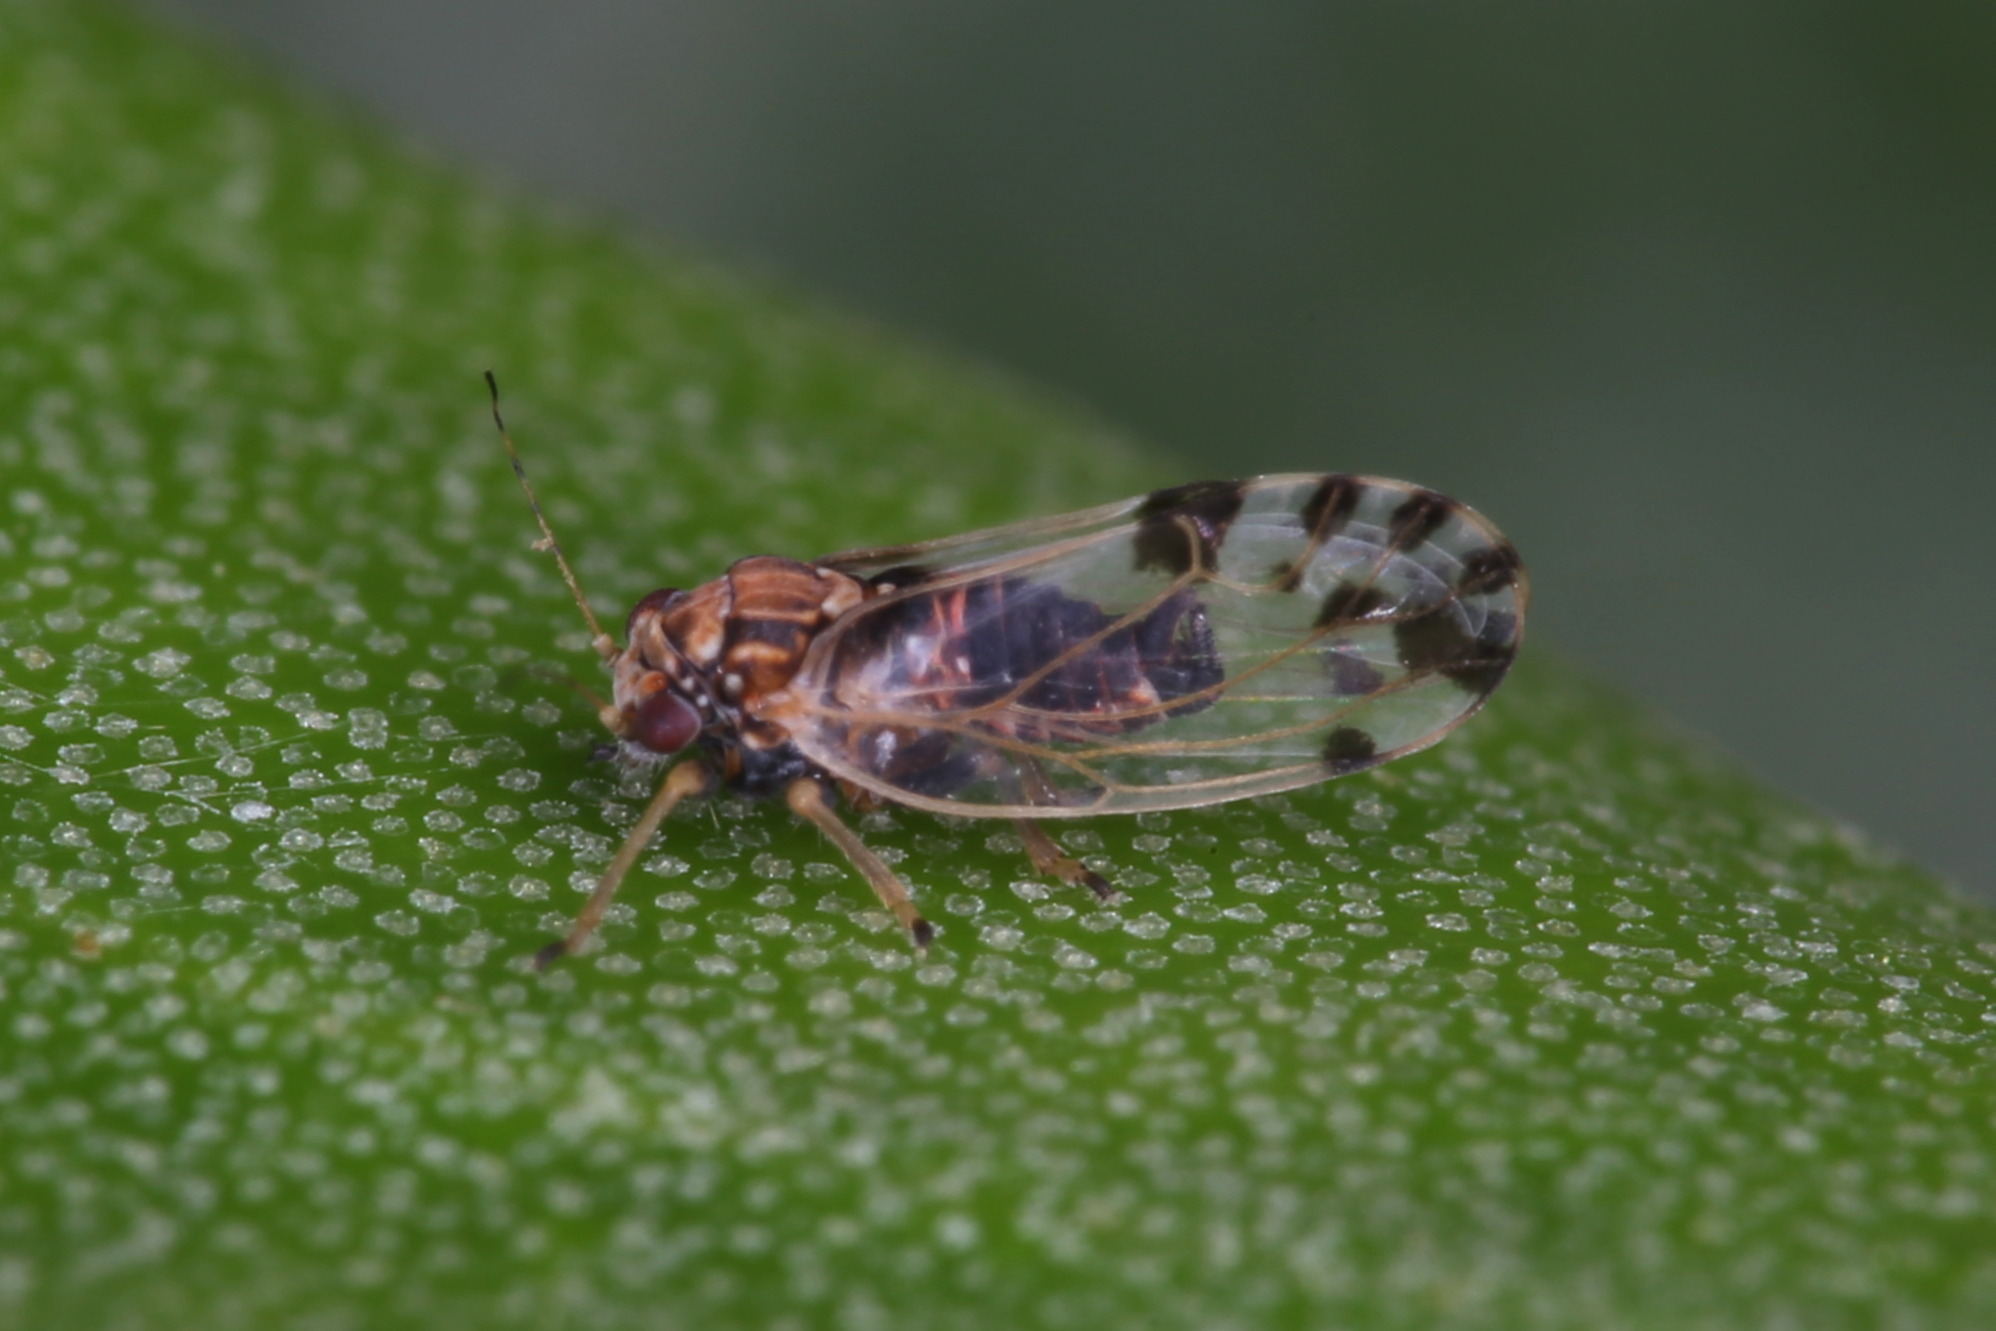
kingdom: Animalia
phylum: Arthropoda
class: Insecta
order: Hemiptera
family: Psyllidae
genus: Cacopsylla
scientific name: Cacopsylla pulchella
